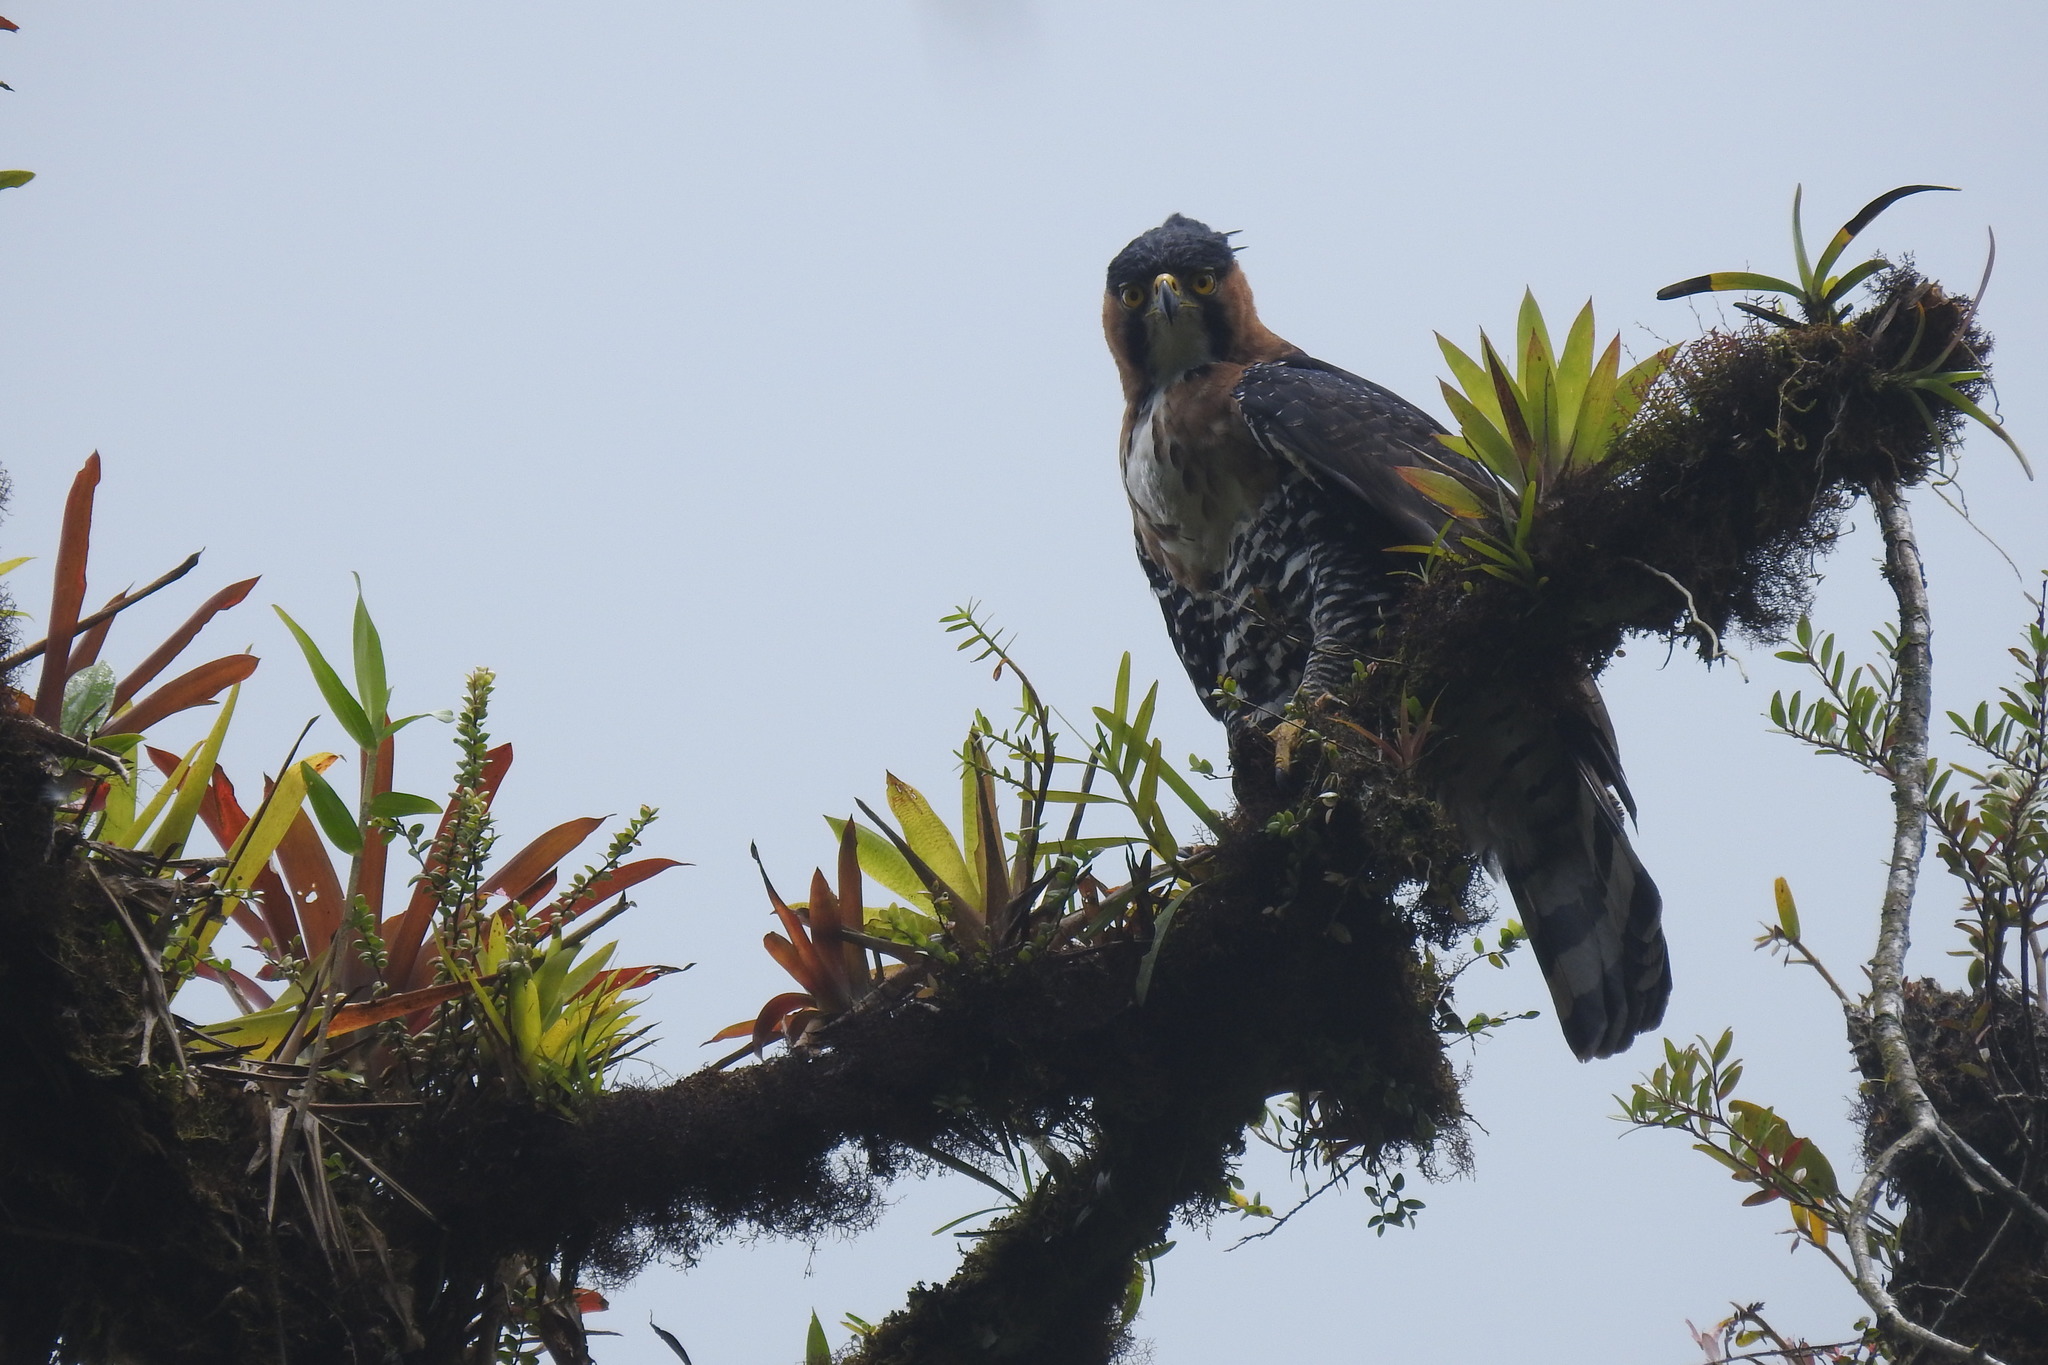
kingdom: Animalia
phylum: Chordata
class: Aves
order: Accipitriformes
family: Accipitridae
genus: Spizaetus
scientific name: Spizaetus ornatus
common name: Ornate hawk-eagle
